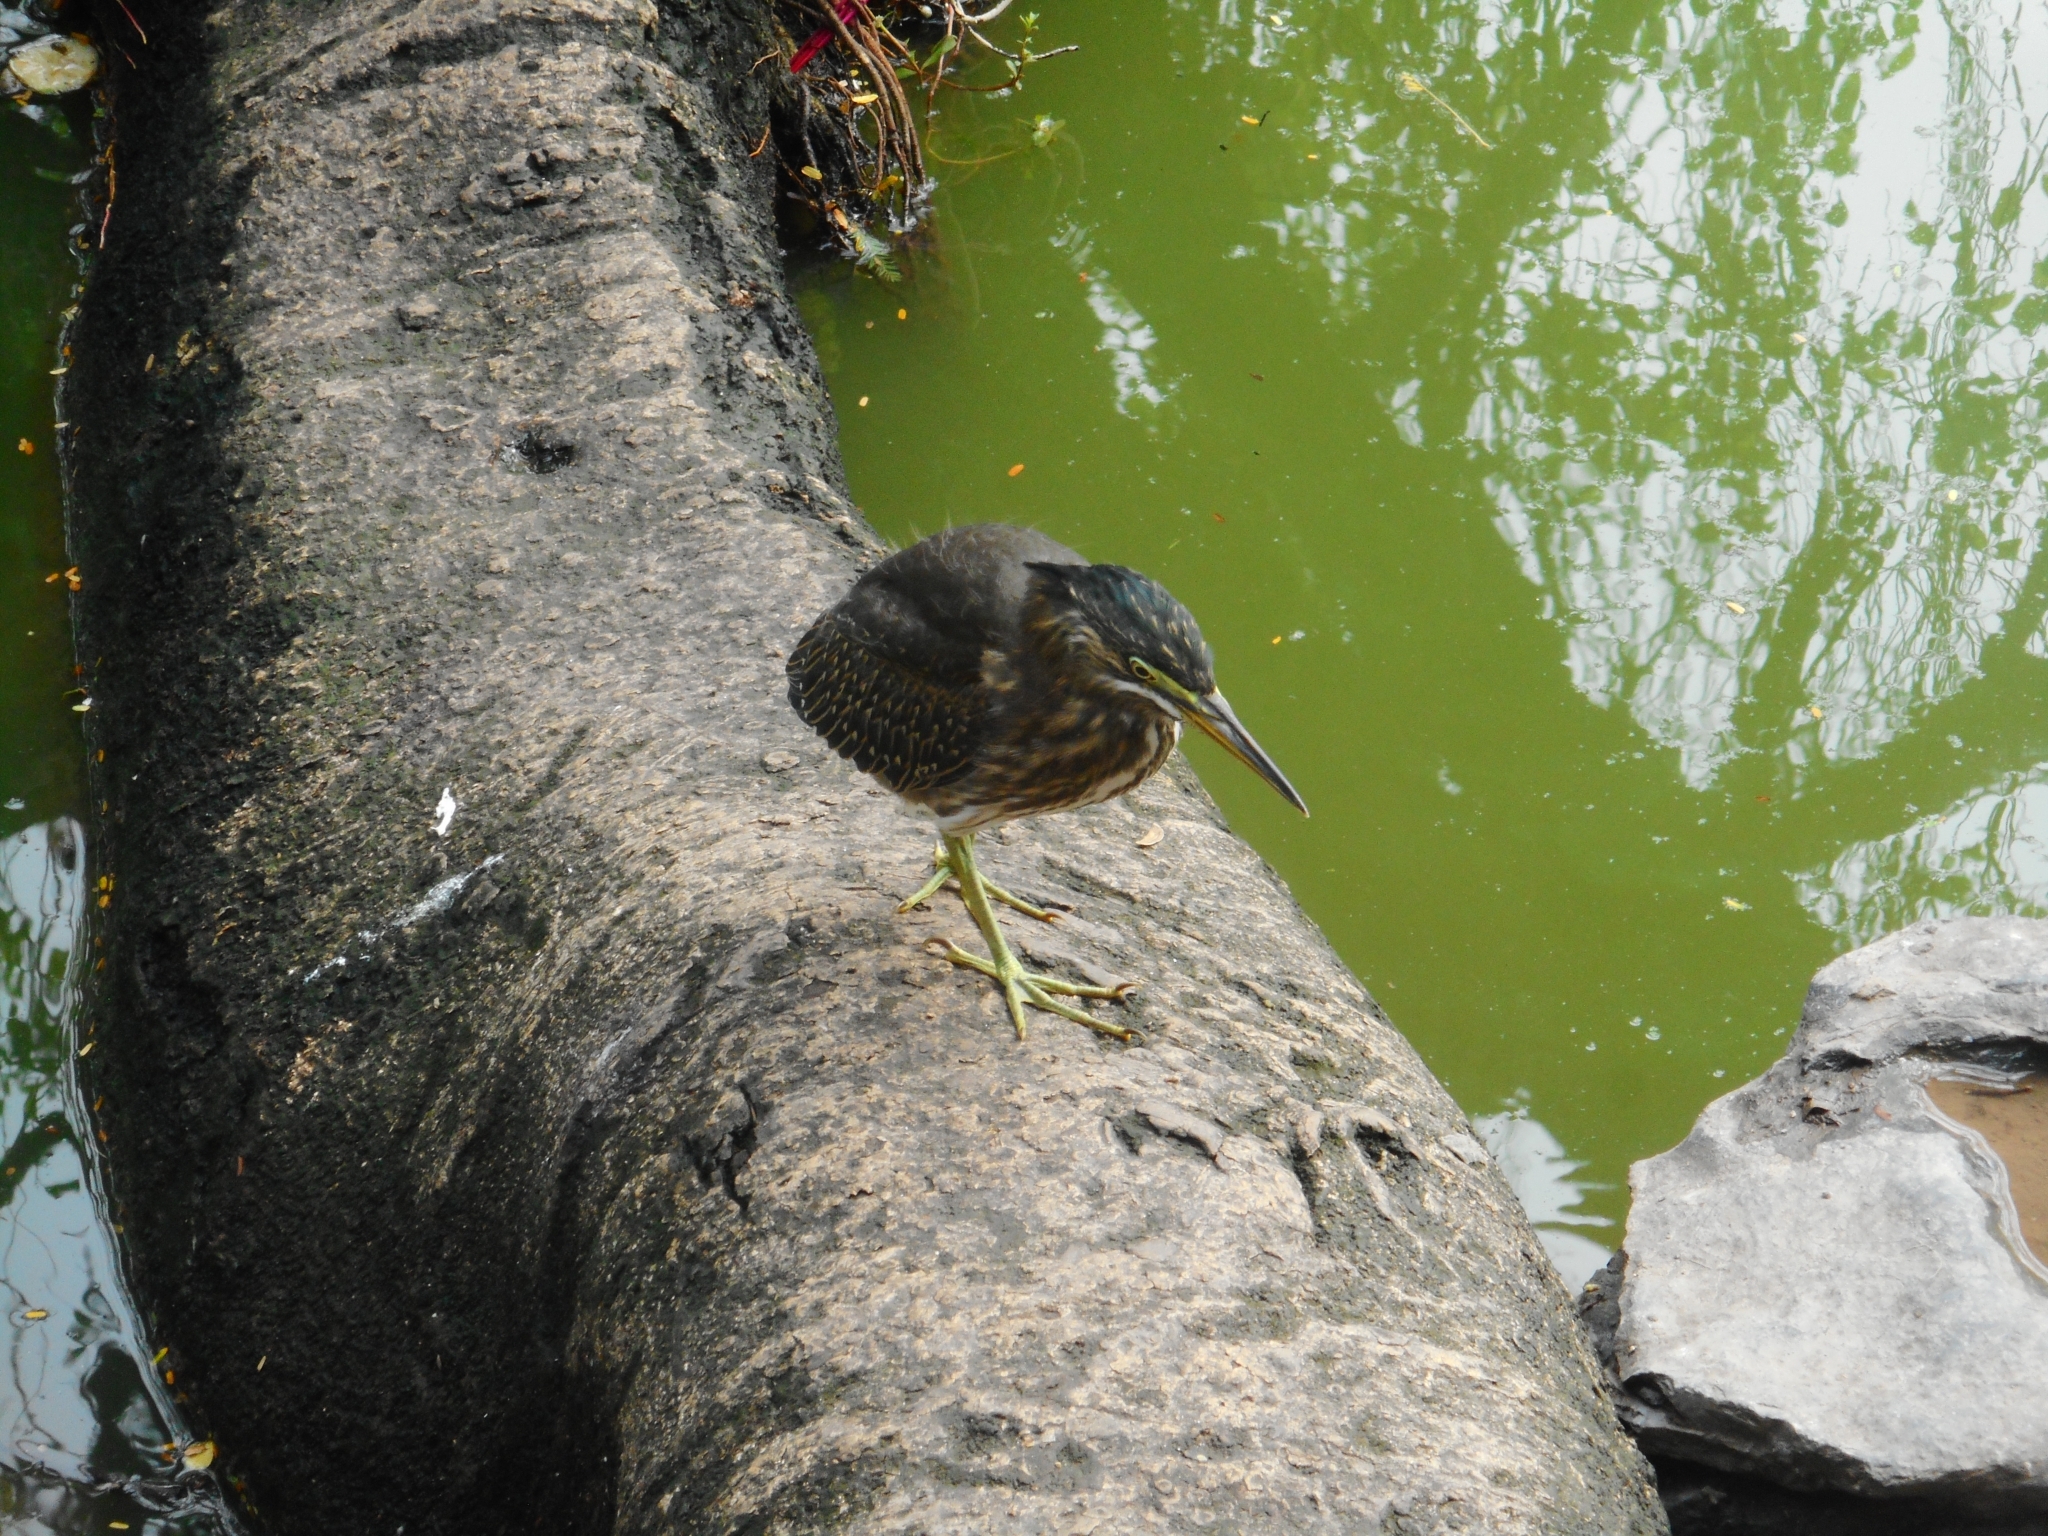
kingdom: Animalia
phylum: Chordata
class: Aves
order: Pelecaniformes
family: Ardeidae
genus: Butorides
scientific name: Butorides striata
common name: Striated heron
